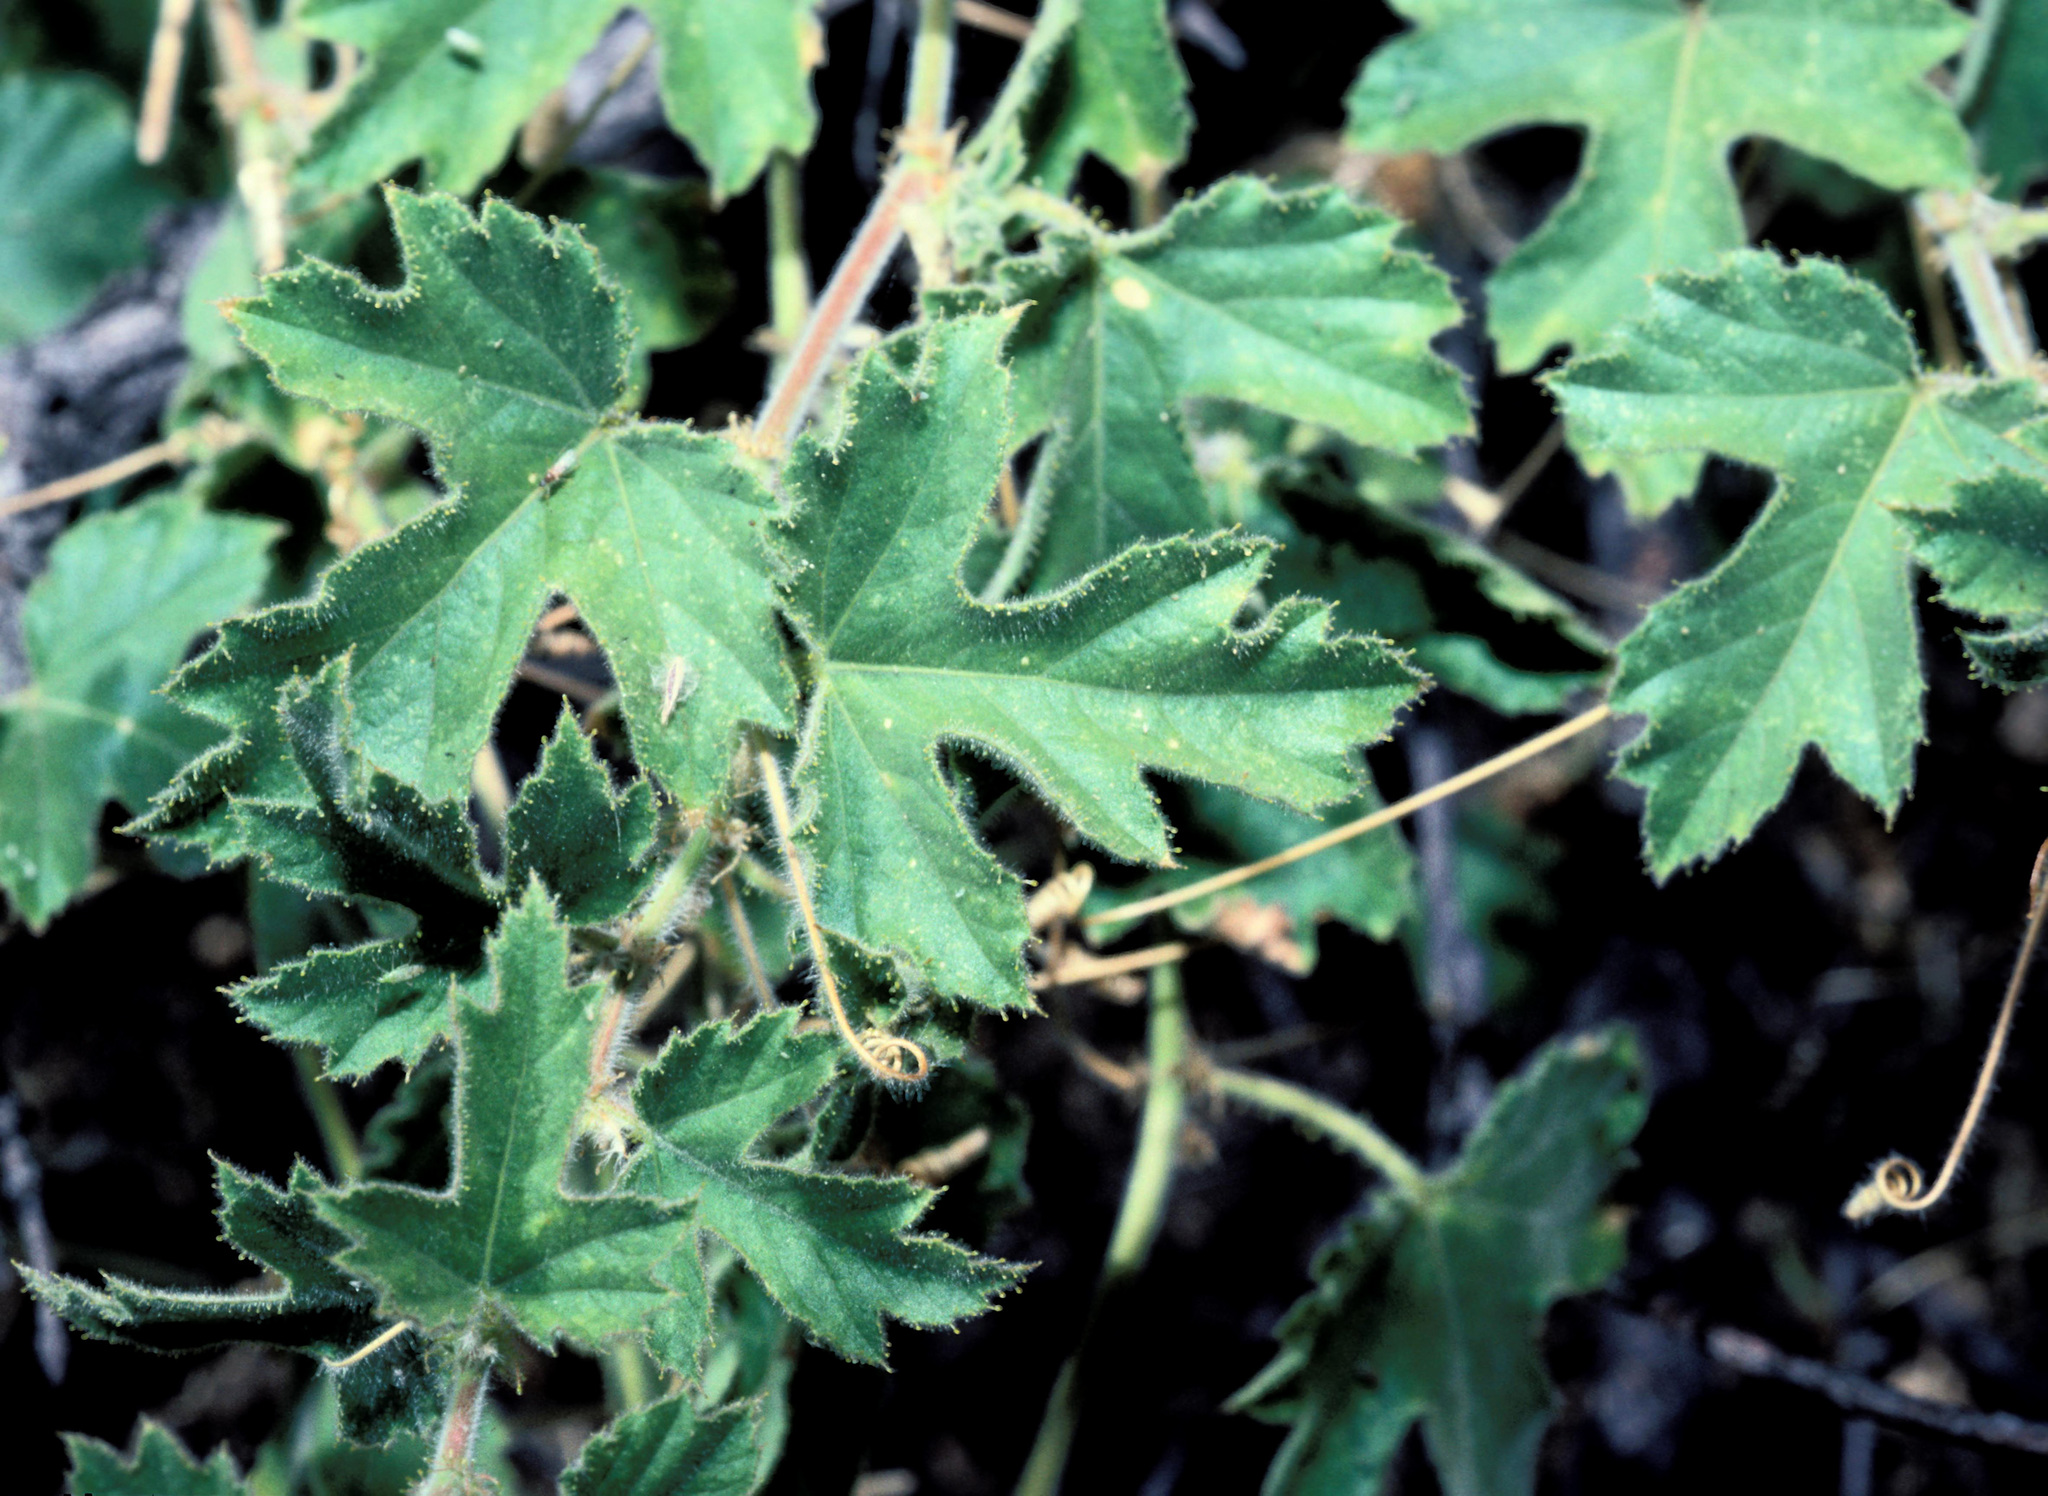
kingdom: Plantae
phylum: Tracheophyta
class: Magnoliopsida
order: Malpighiales
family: Passifloraceae
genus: Passiflora
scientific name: Passiflora arizonica
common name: Arizona passionflower
